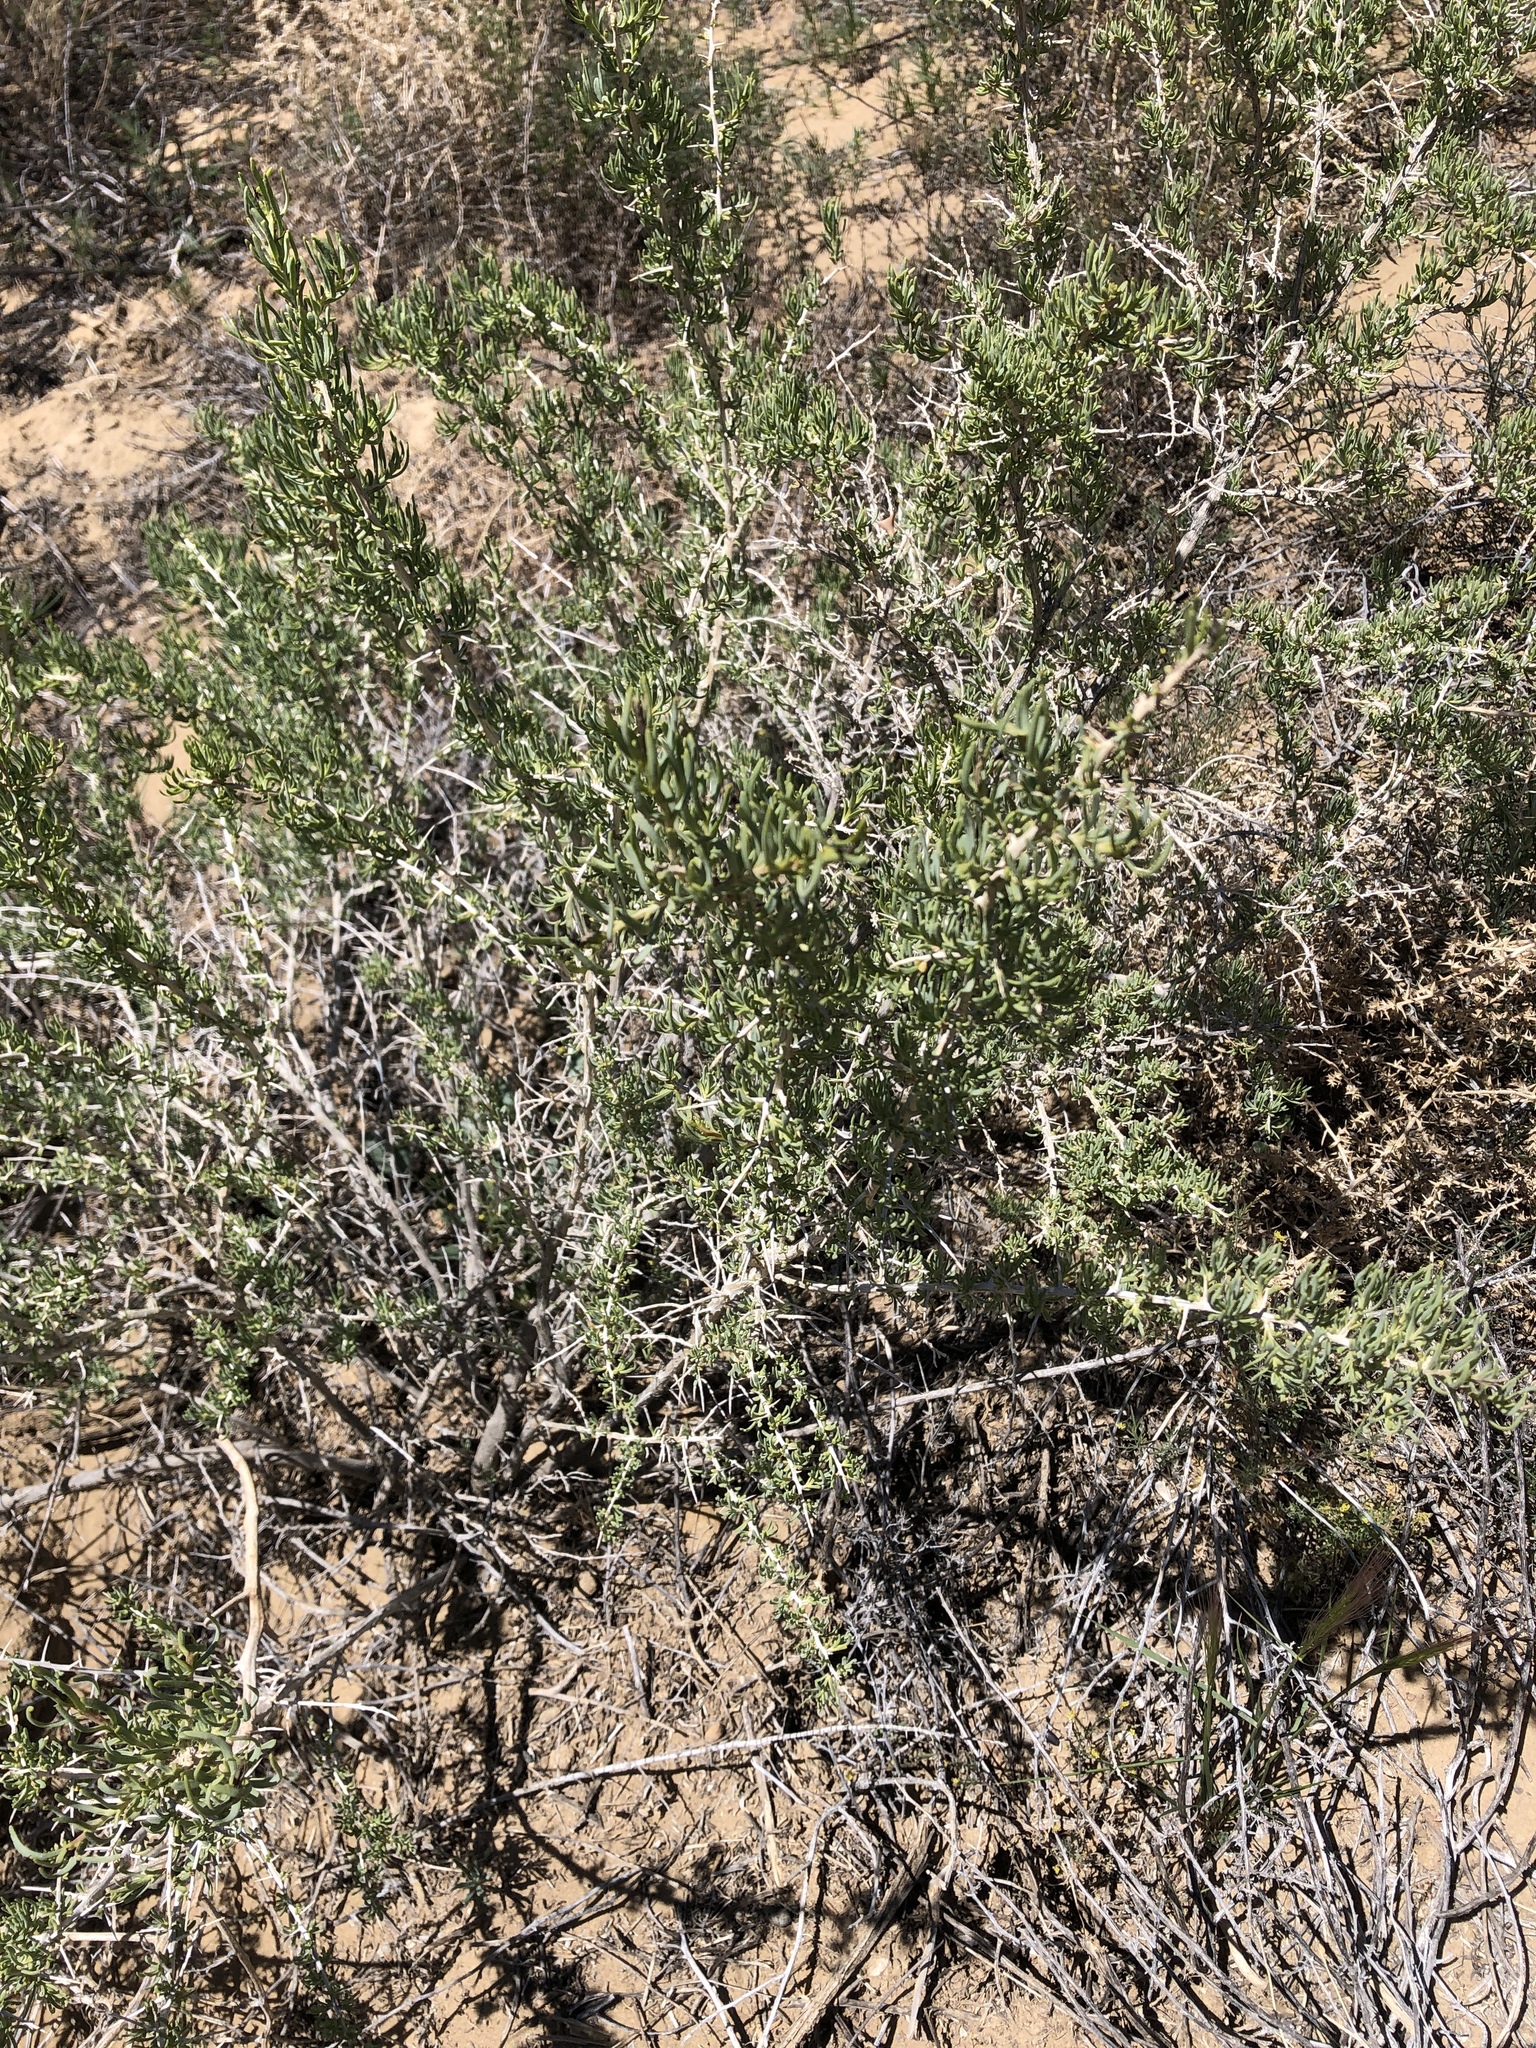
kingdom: Plantae
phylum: Tracheophyta
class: Magnoliopsida
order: Caryophyllales
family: Sarcobataceae
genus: Sarcobatus
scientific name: Sarcobatus vermiculatus
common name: Greasewood
